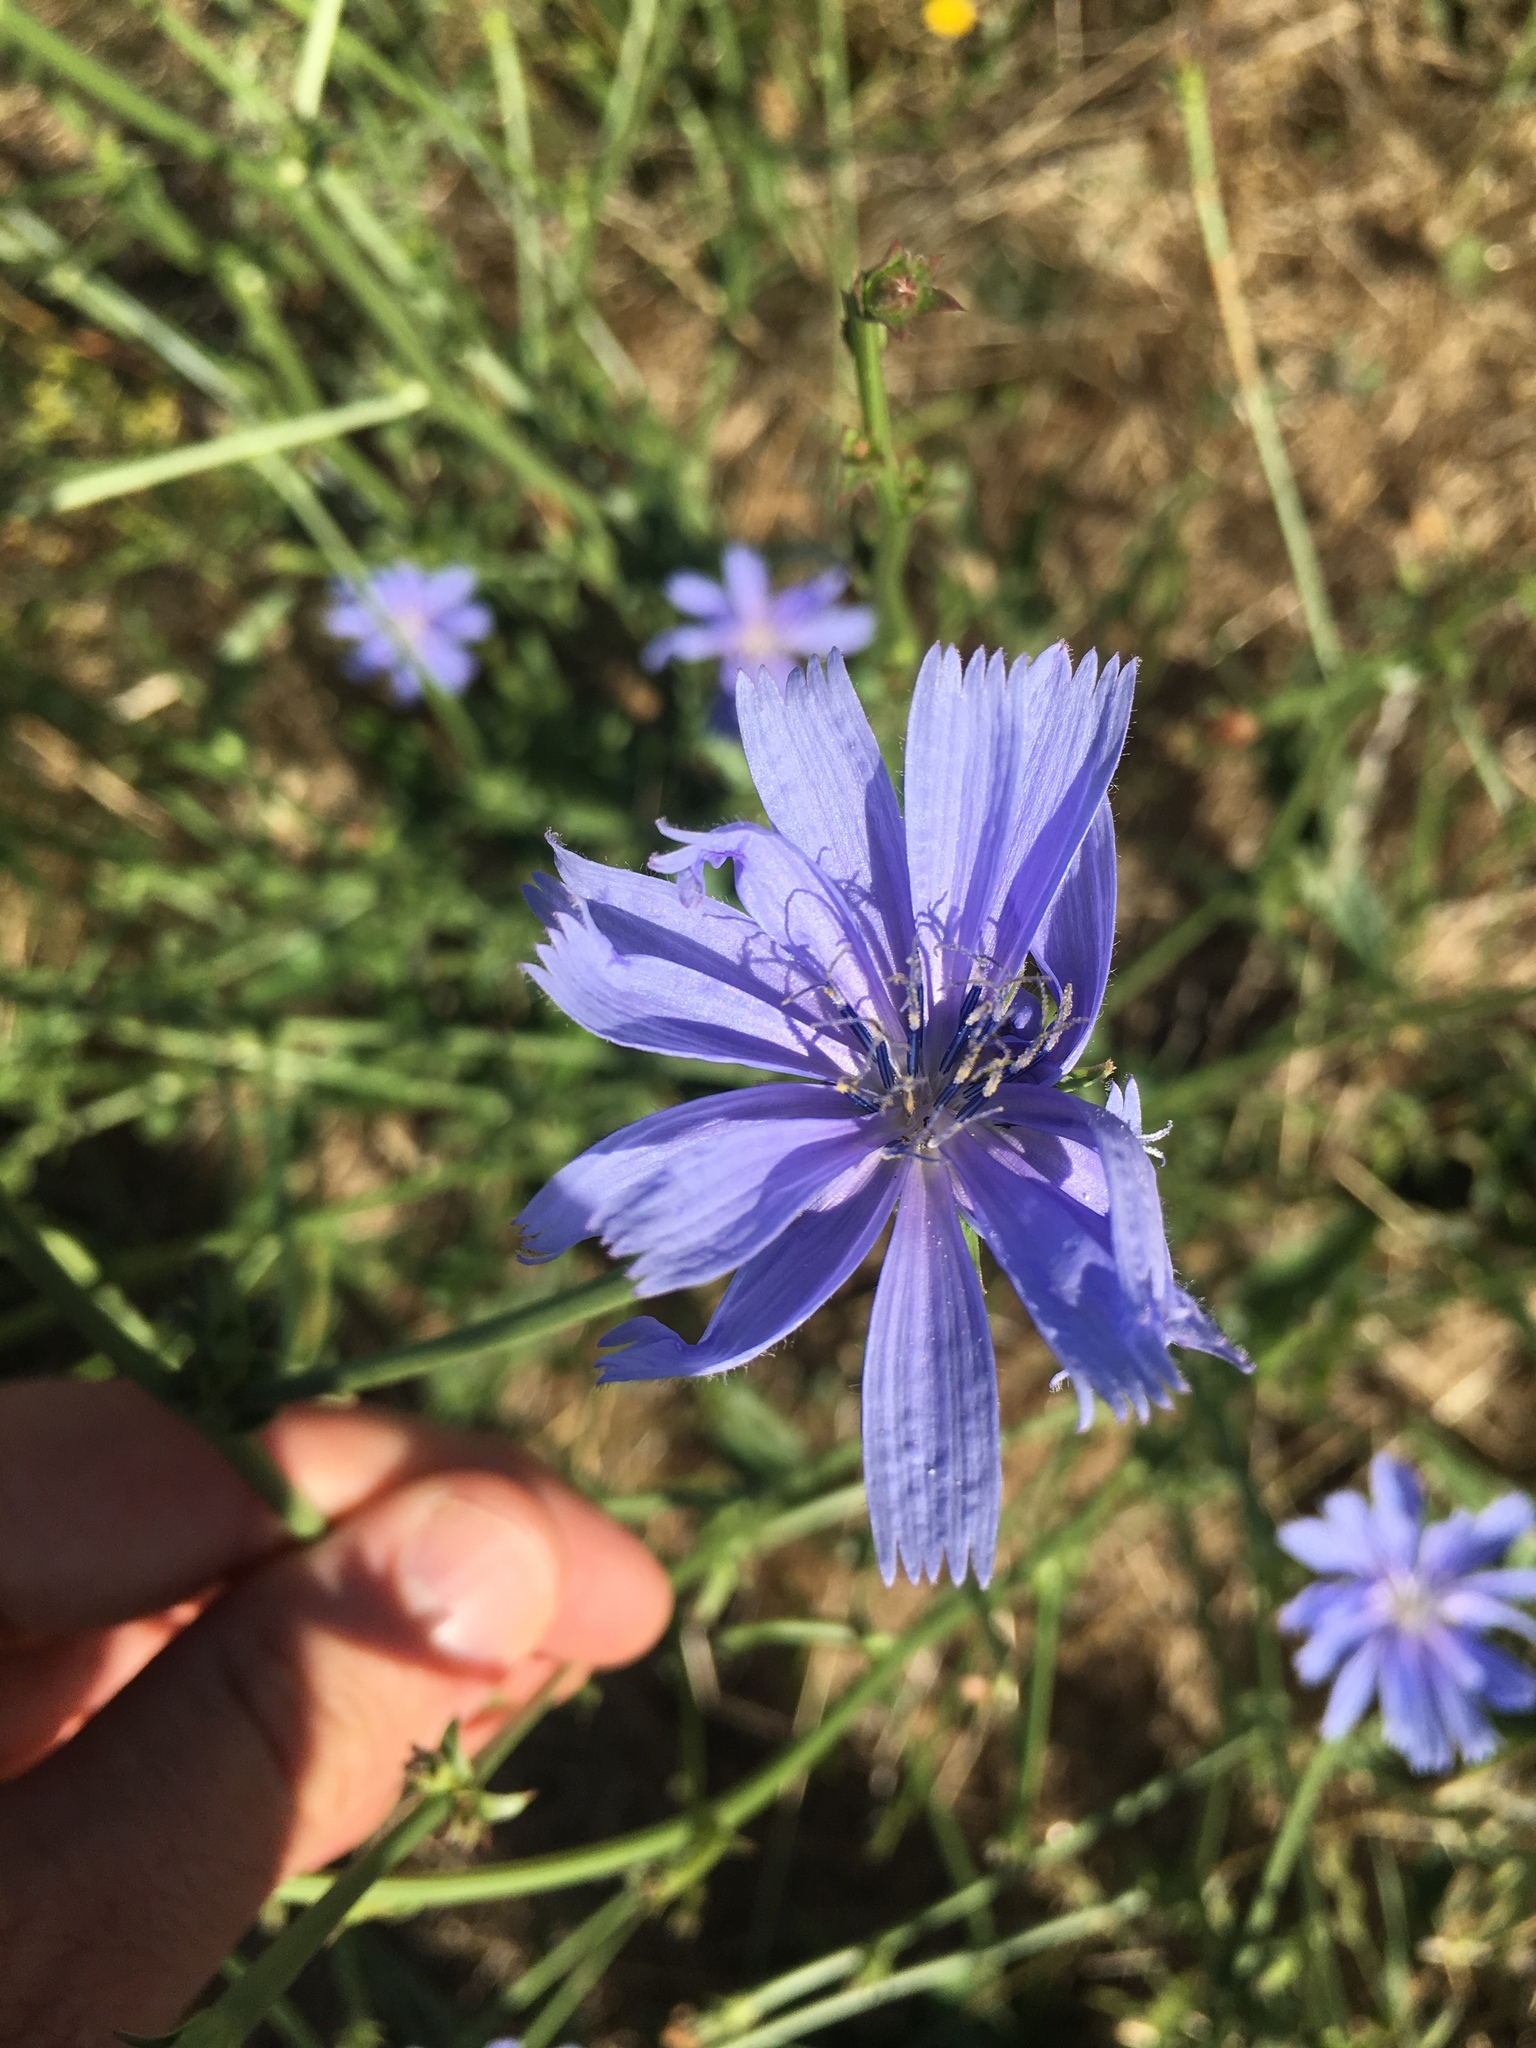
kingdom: Plantae
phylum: Tracheophyta
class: Magnoliopsida
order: Asterales
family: Asteraceae
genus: Cichorium
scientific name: Cichorium intybus
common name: Chicory
